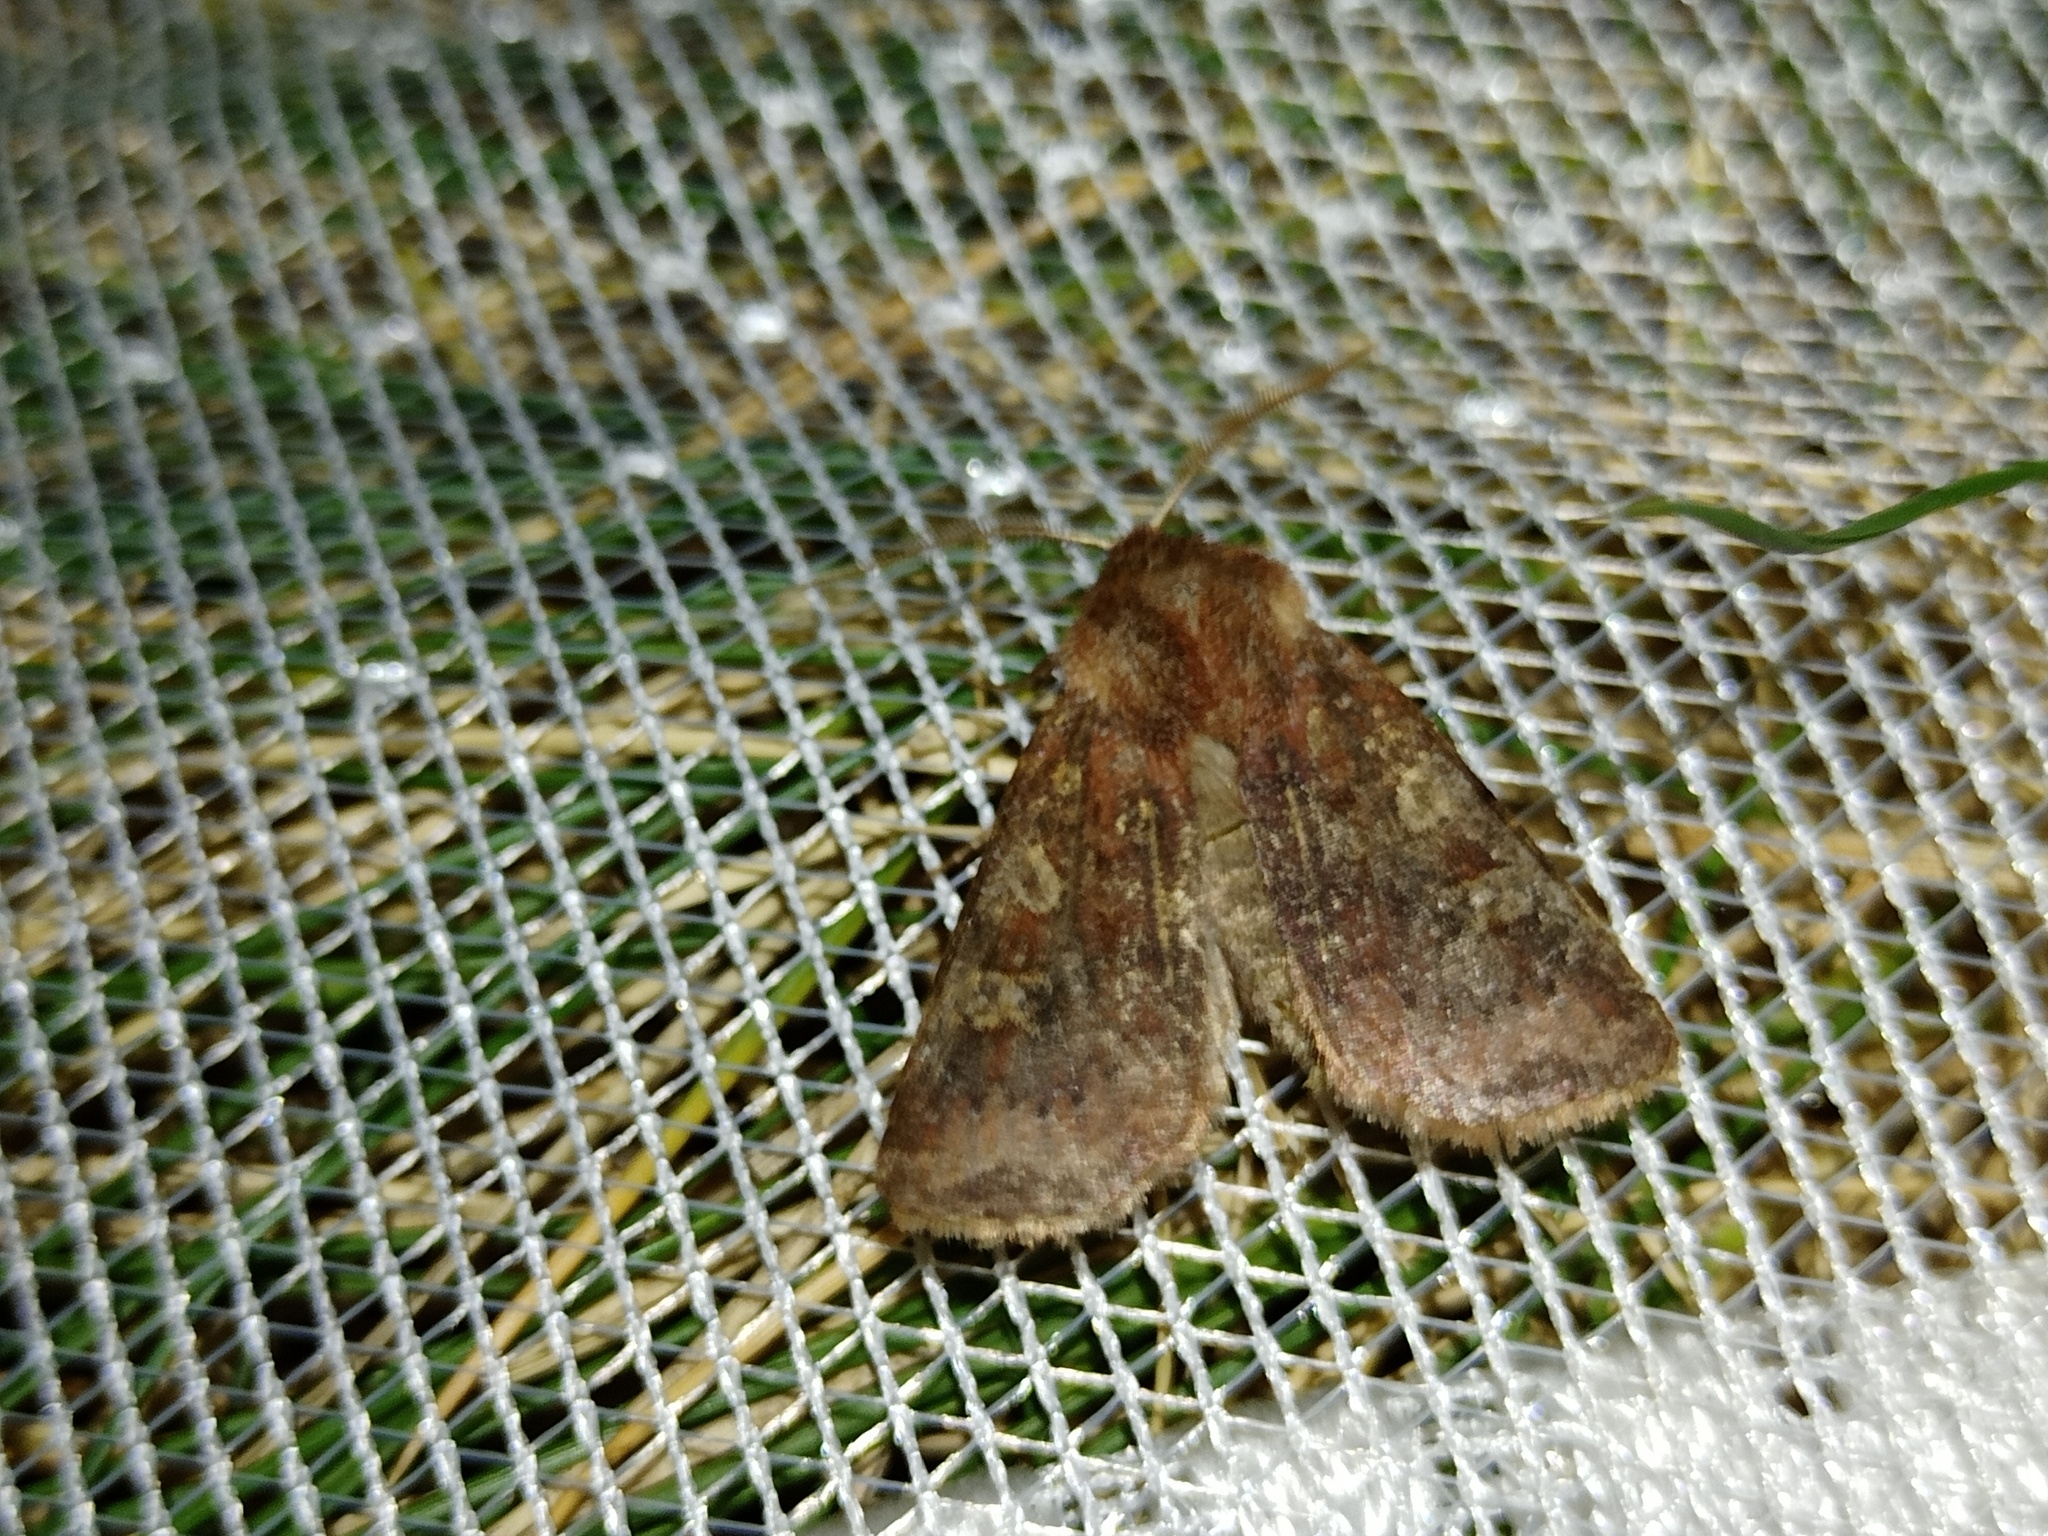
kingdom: Animalia
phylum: Arthropoda
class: Insecta
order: Lepidoptera
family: Noctuidae
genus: Cerastis
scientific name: Cerastis leucographa
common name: White-marked
